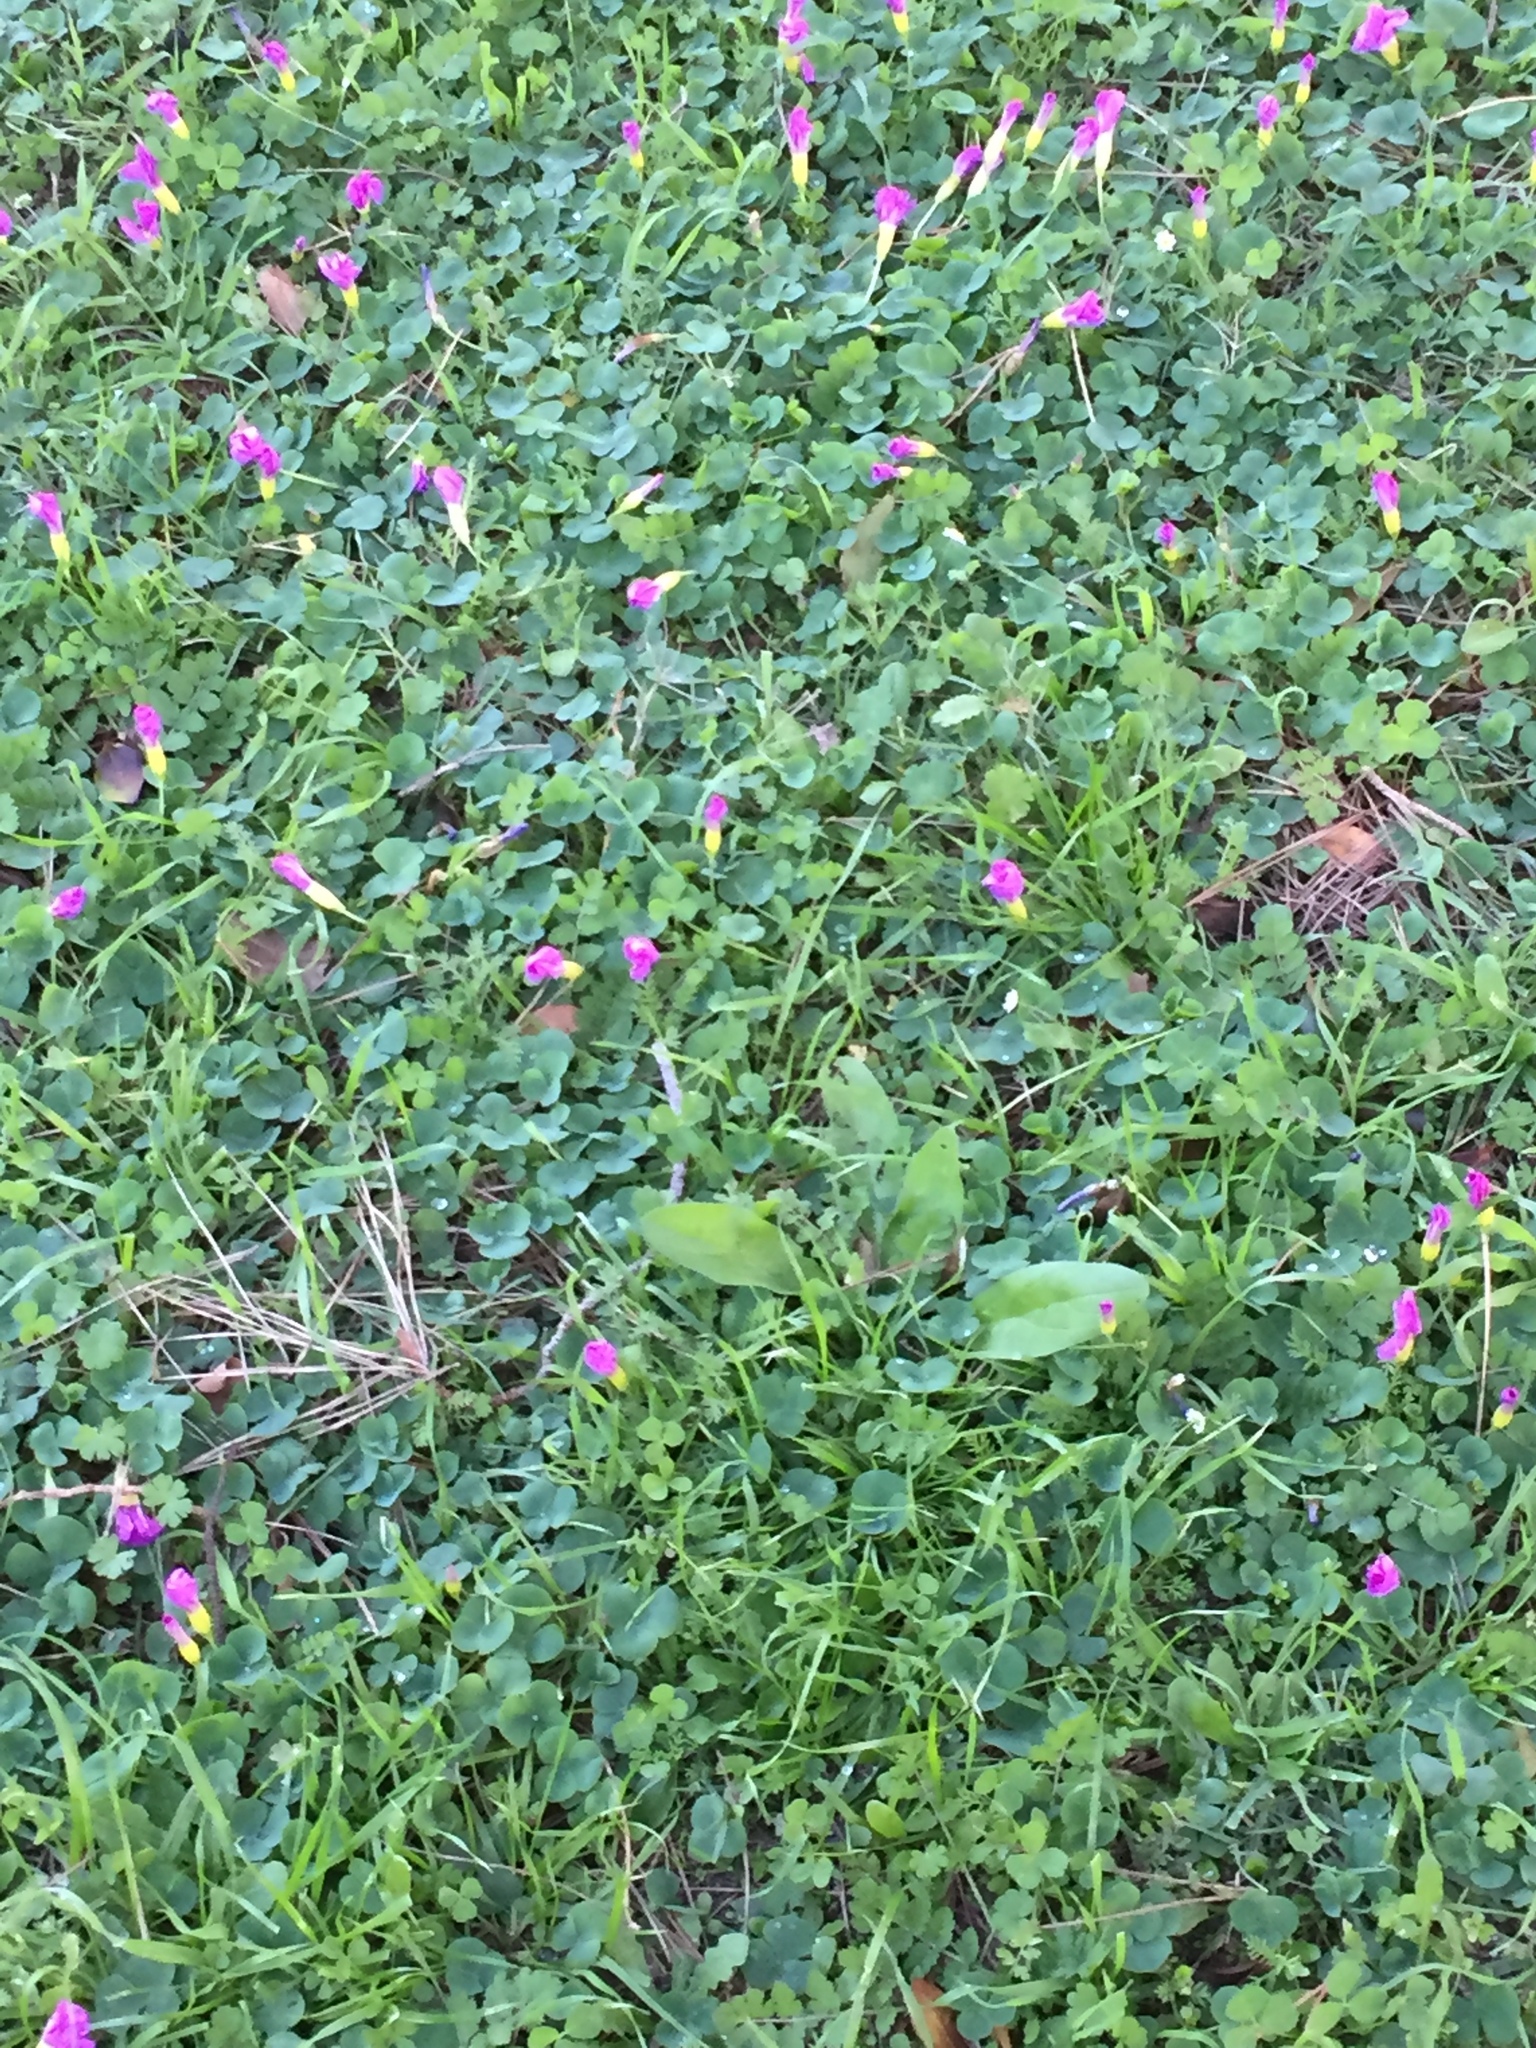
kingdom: Plantae
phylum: Tracheophyta
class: Magnoliopsida
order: Oxalidales
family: Oxalidaceae
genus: Oxalis
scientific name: Oxalis purpurea
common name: Purple woodsorrel
